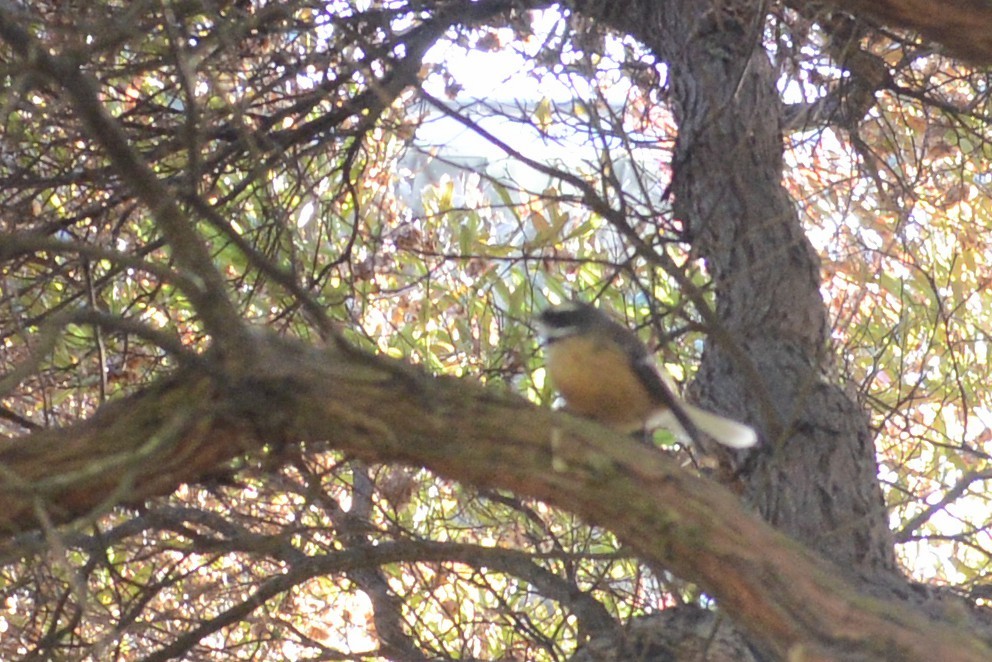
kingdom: Animalia
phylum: Chordata
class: Aves
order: Passeriformes
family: Rhipiduridae
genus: Rhipidura
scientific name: Rhipidura fuliginosa
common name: New zealand fantail
